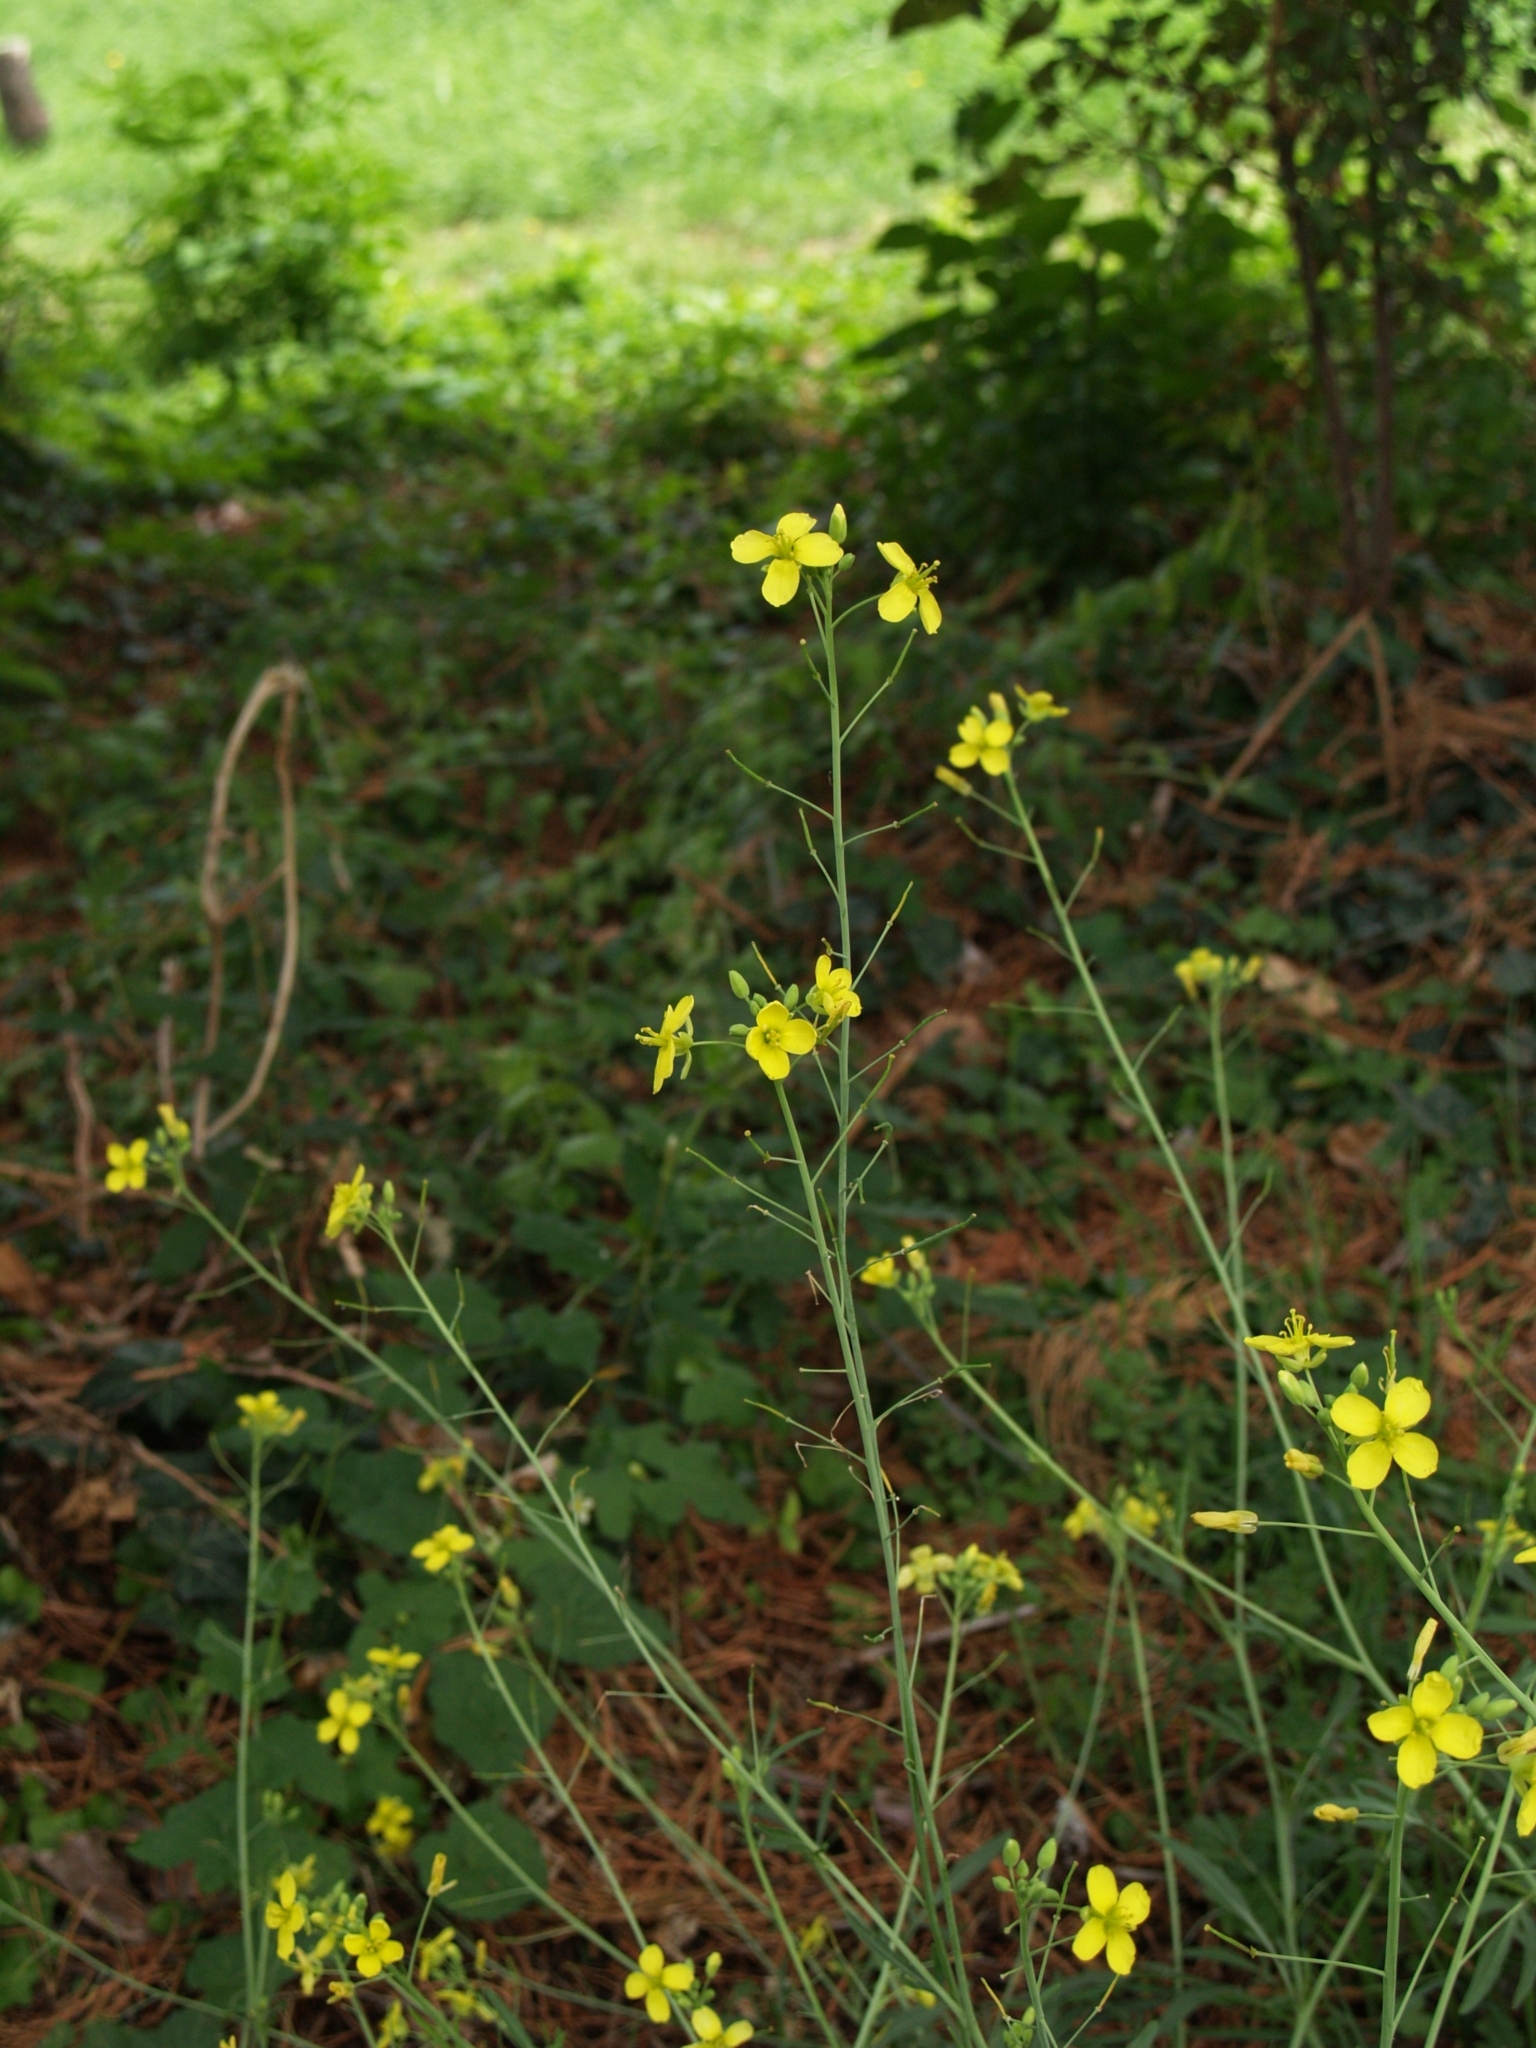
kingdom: Plantae
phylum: Tracheophyta
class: Magnoliopsida
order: Brassicales
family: Brassicaceae
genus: Diplotaxis
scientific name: Diplotaxis tenuifolia
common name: Perennial wall-rocket
